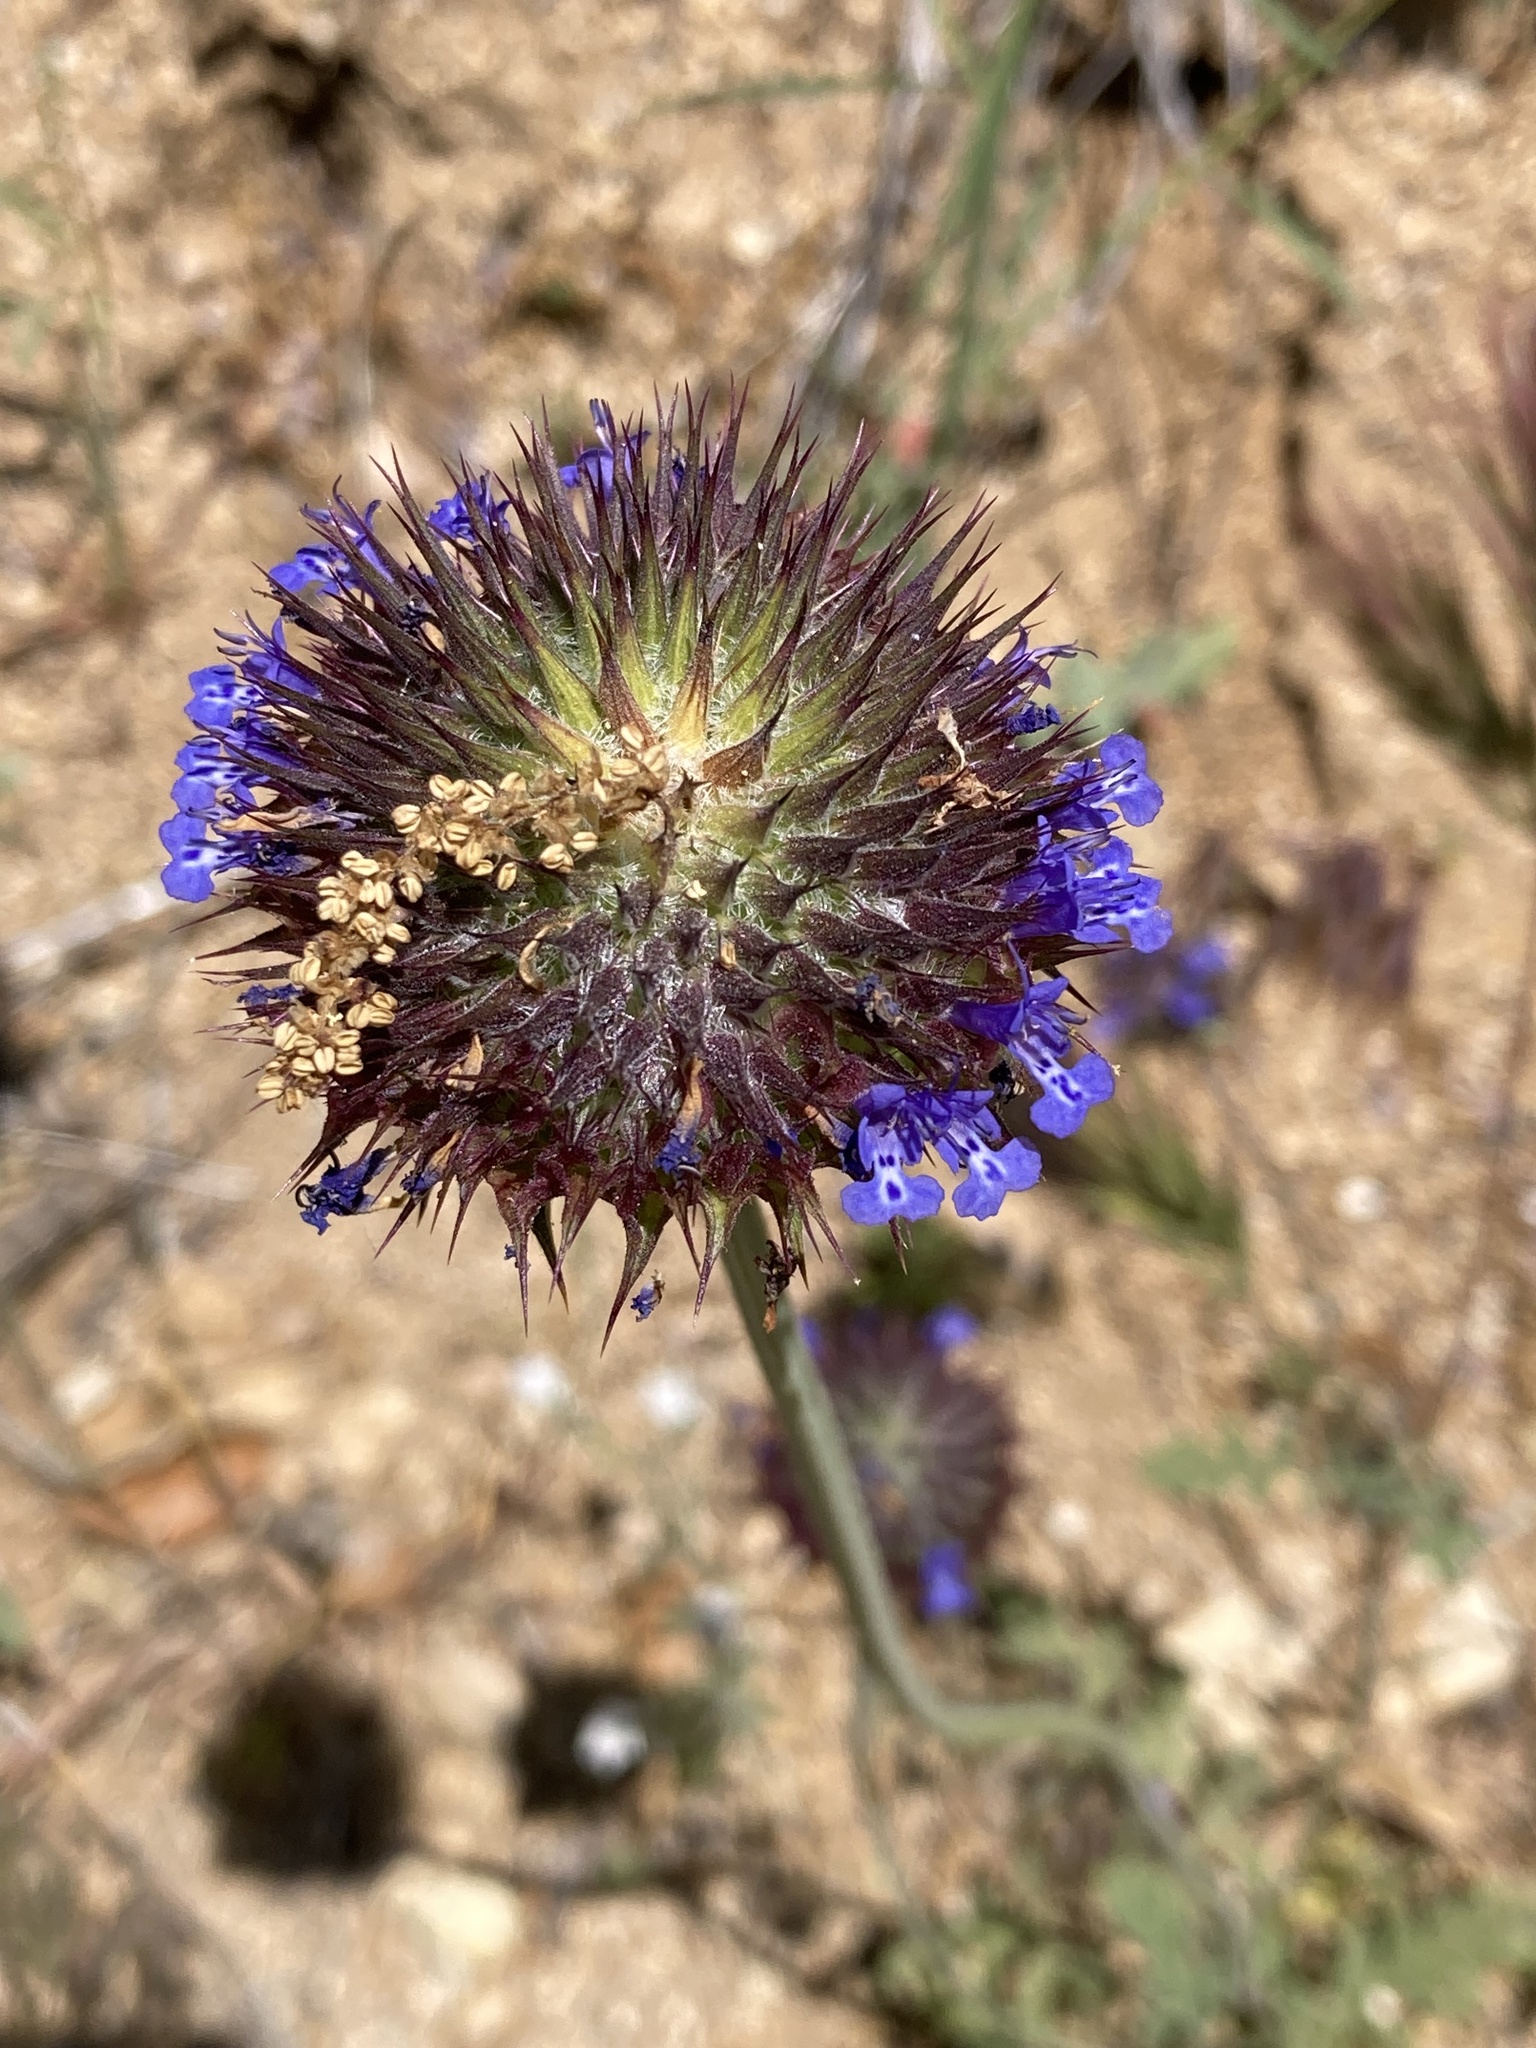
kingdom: Plantae
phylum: Tracheophyta
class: Magnoliopsida
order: Lamiales
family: Lamiaceae
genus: Salvia
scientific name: Salvia columbariae
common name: Chia
